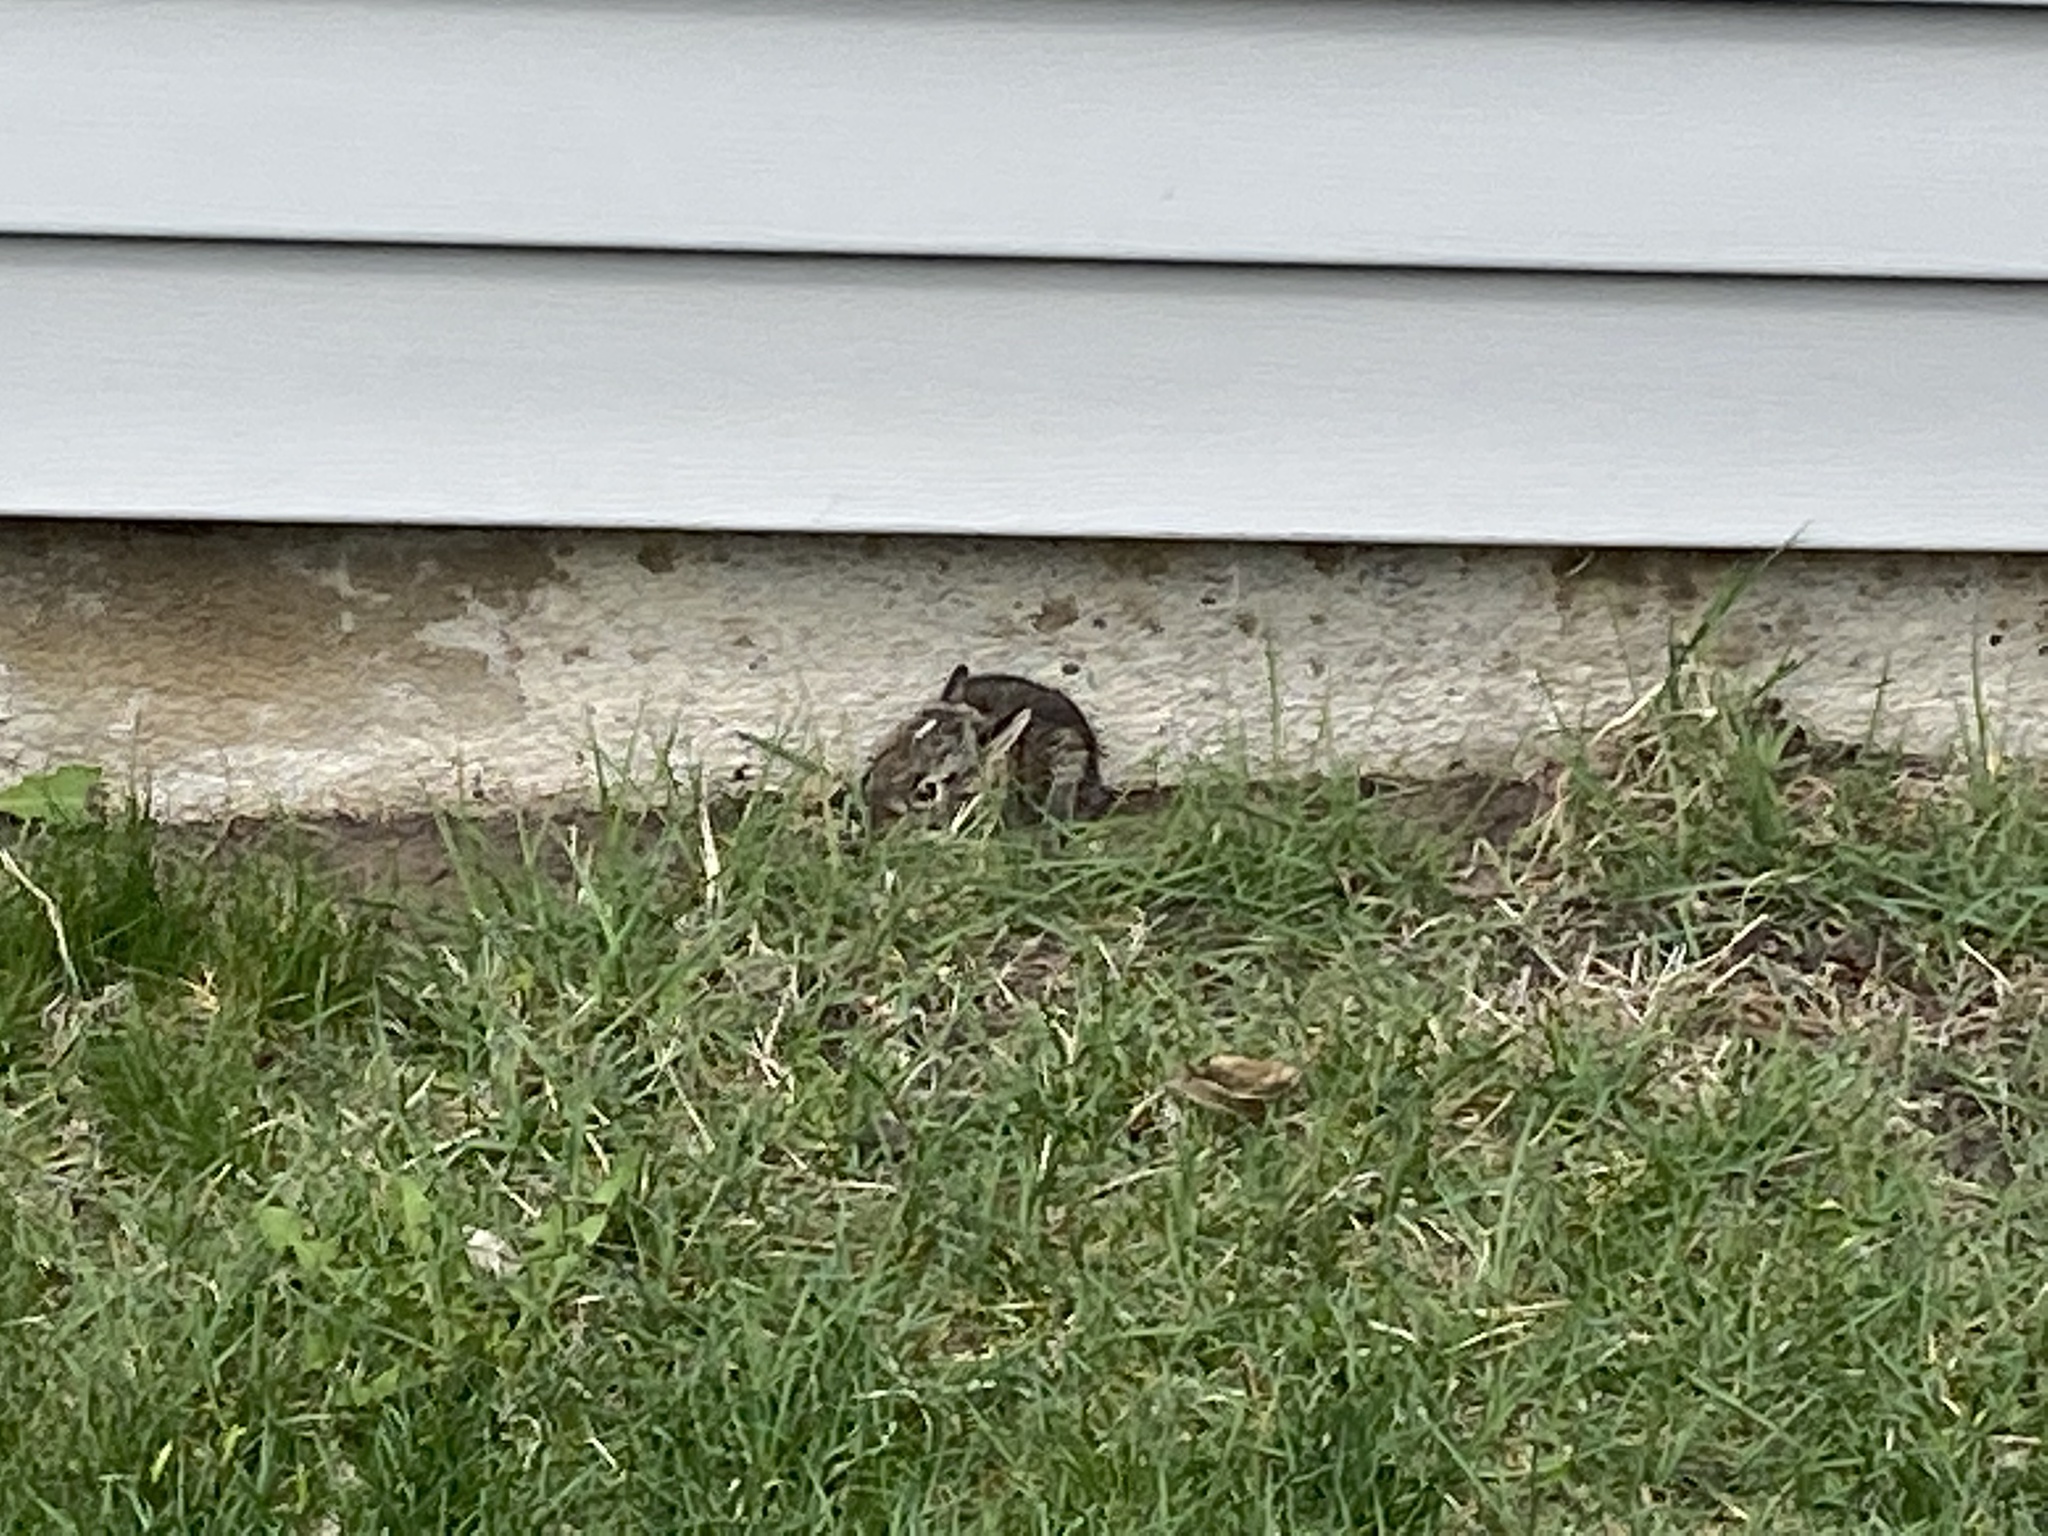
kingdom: Animalia
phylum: Chordata
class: Mammalia
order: Lagomorpha
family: Leporidae
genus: Sylvilagus
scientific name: Sylvilagus floridanus
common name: Eastern cottontail
